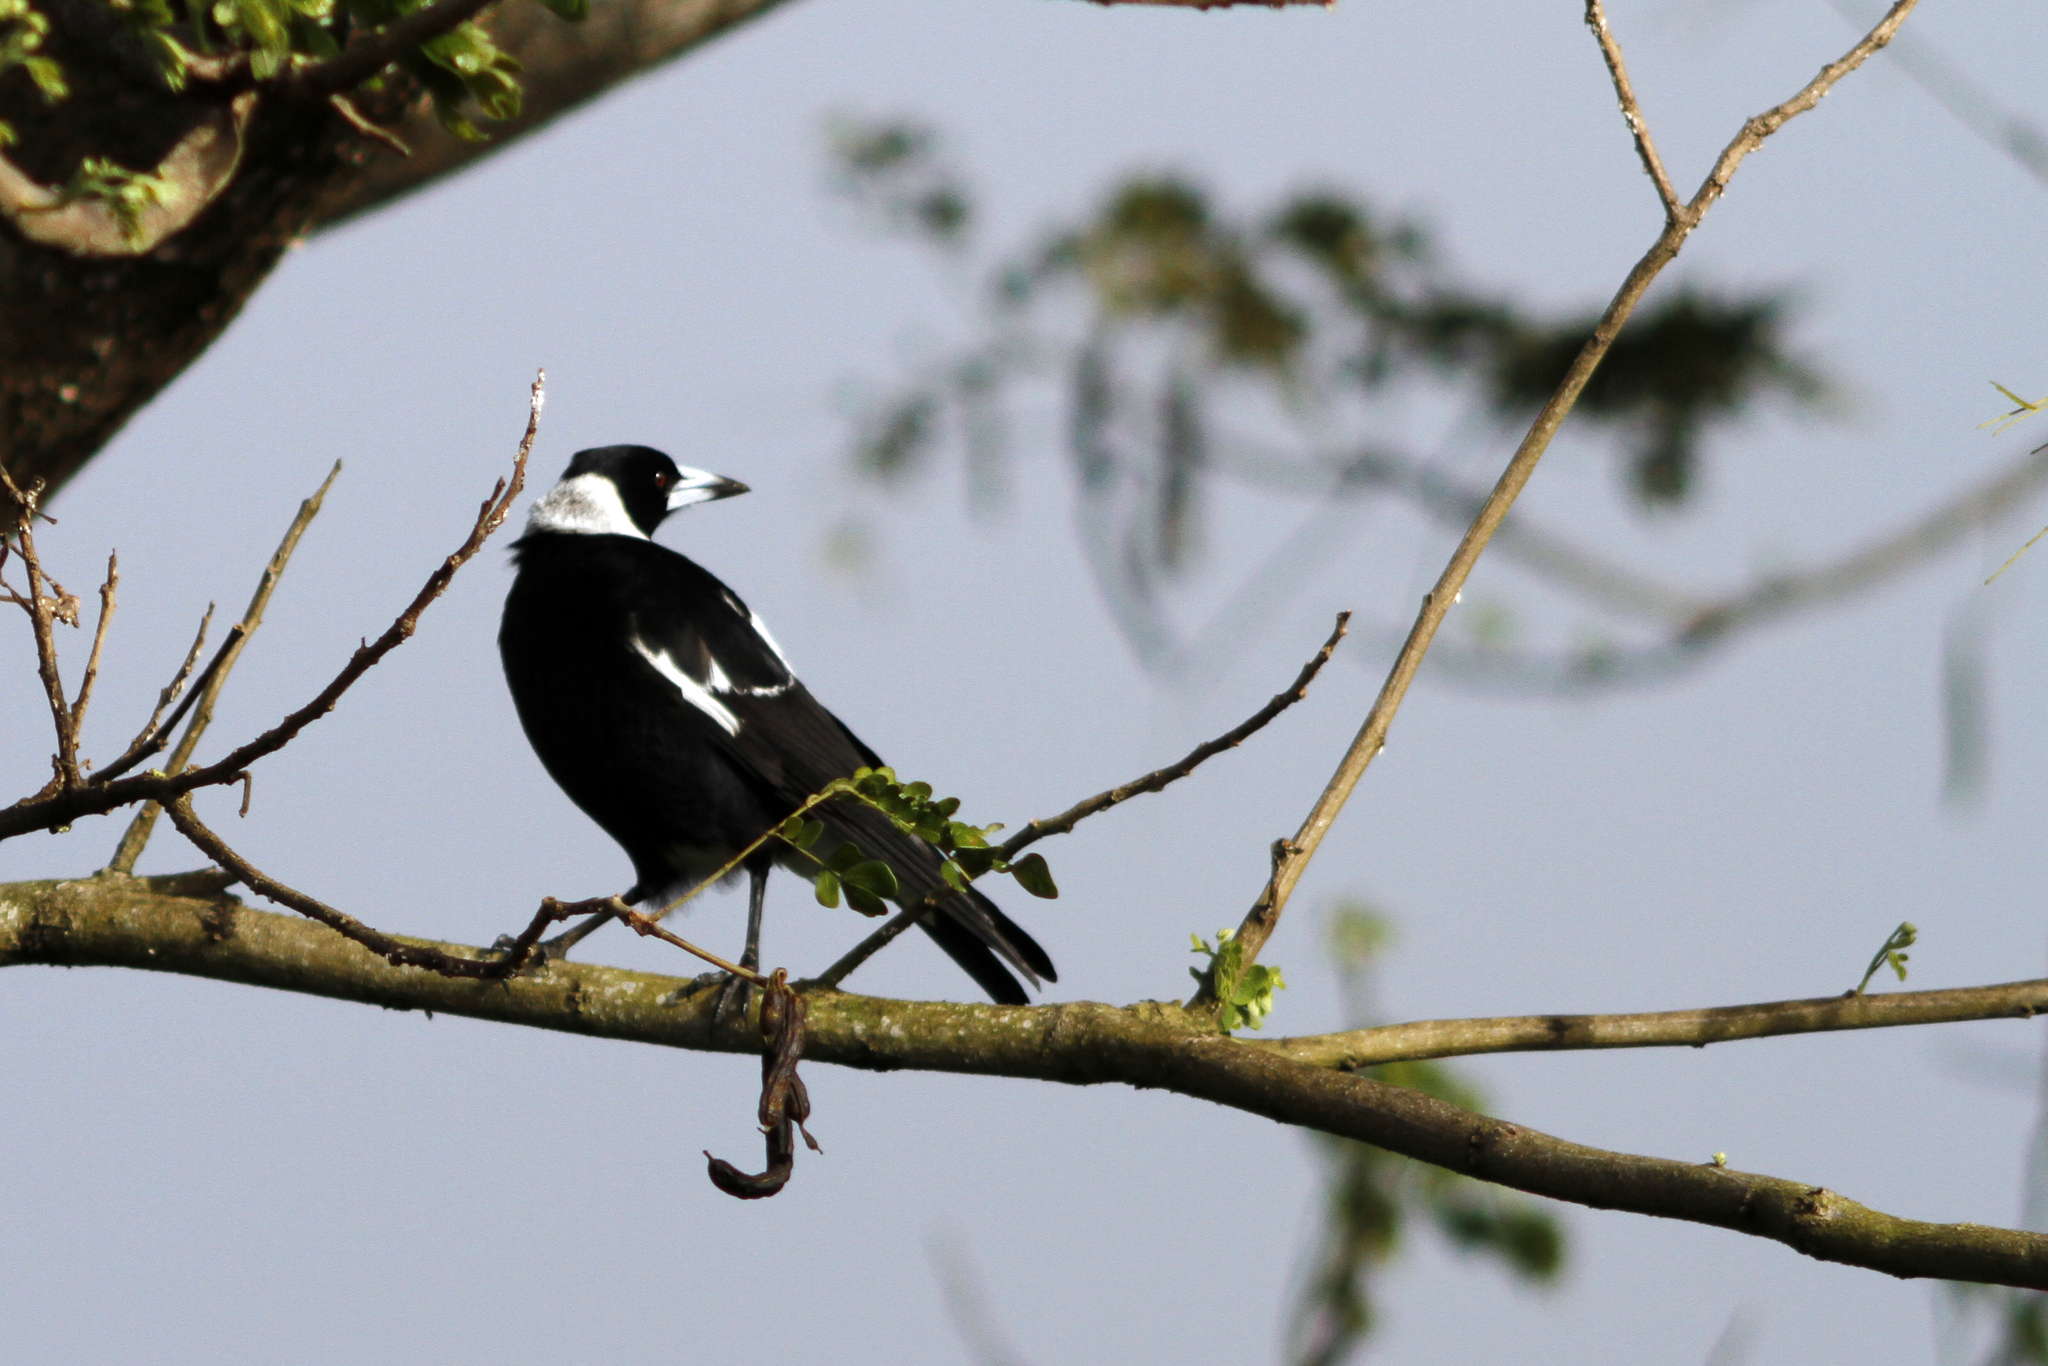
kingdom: Animalia
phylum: Chordata
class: Aves
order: Passeriformes
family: Cracticidae
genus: Gymnorhina
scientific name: Gymnorhina tibicen
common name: Australian magpie
